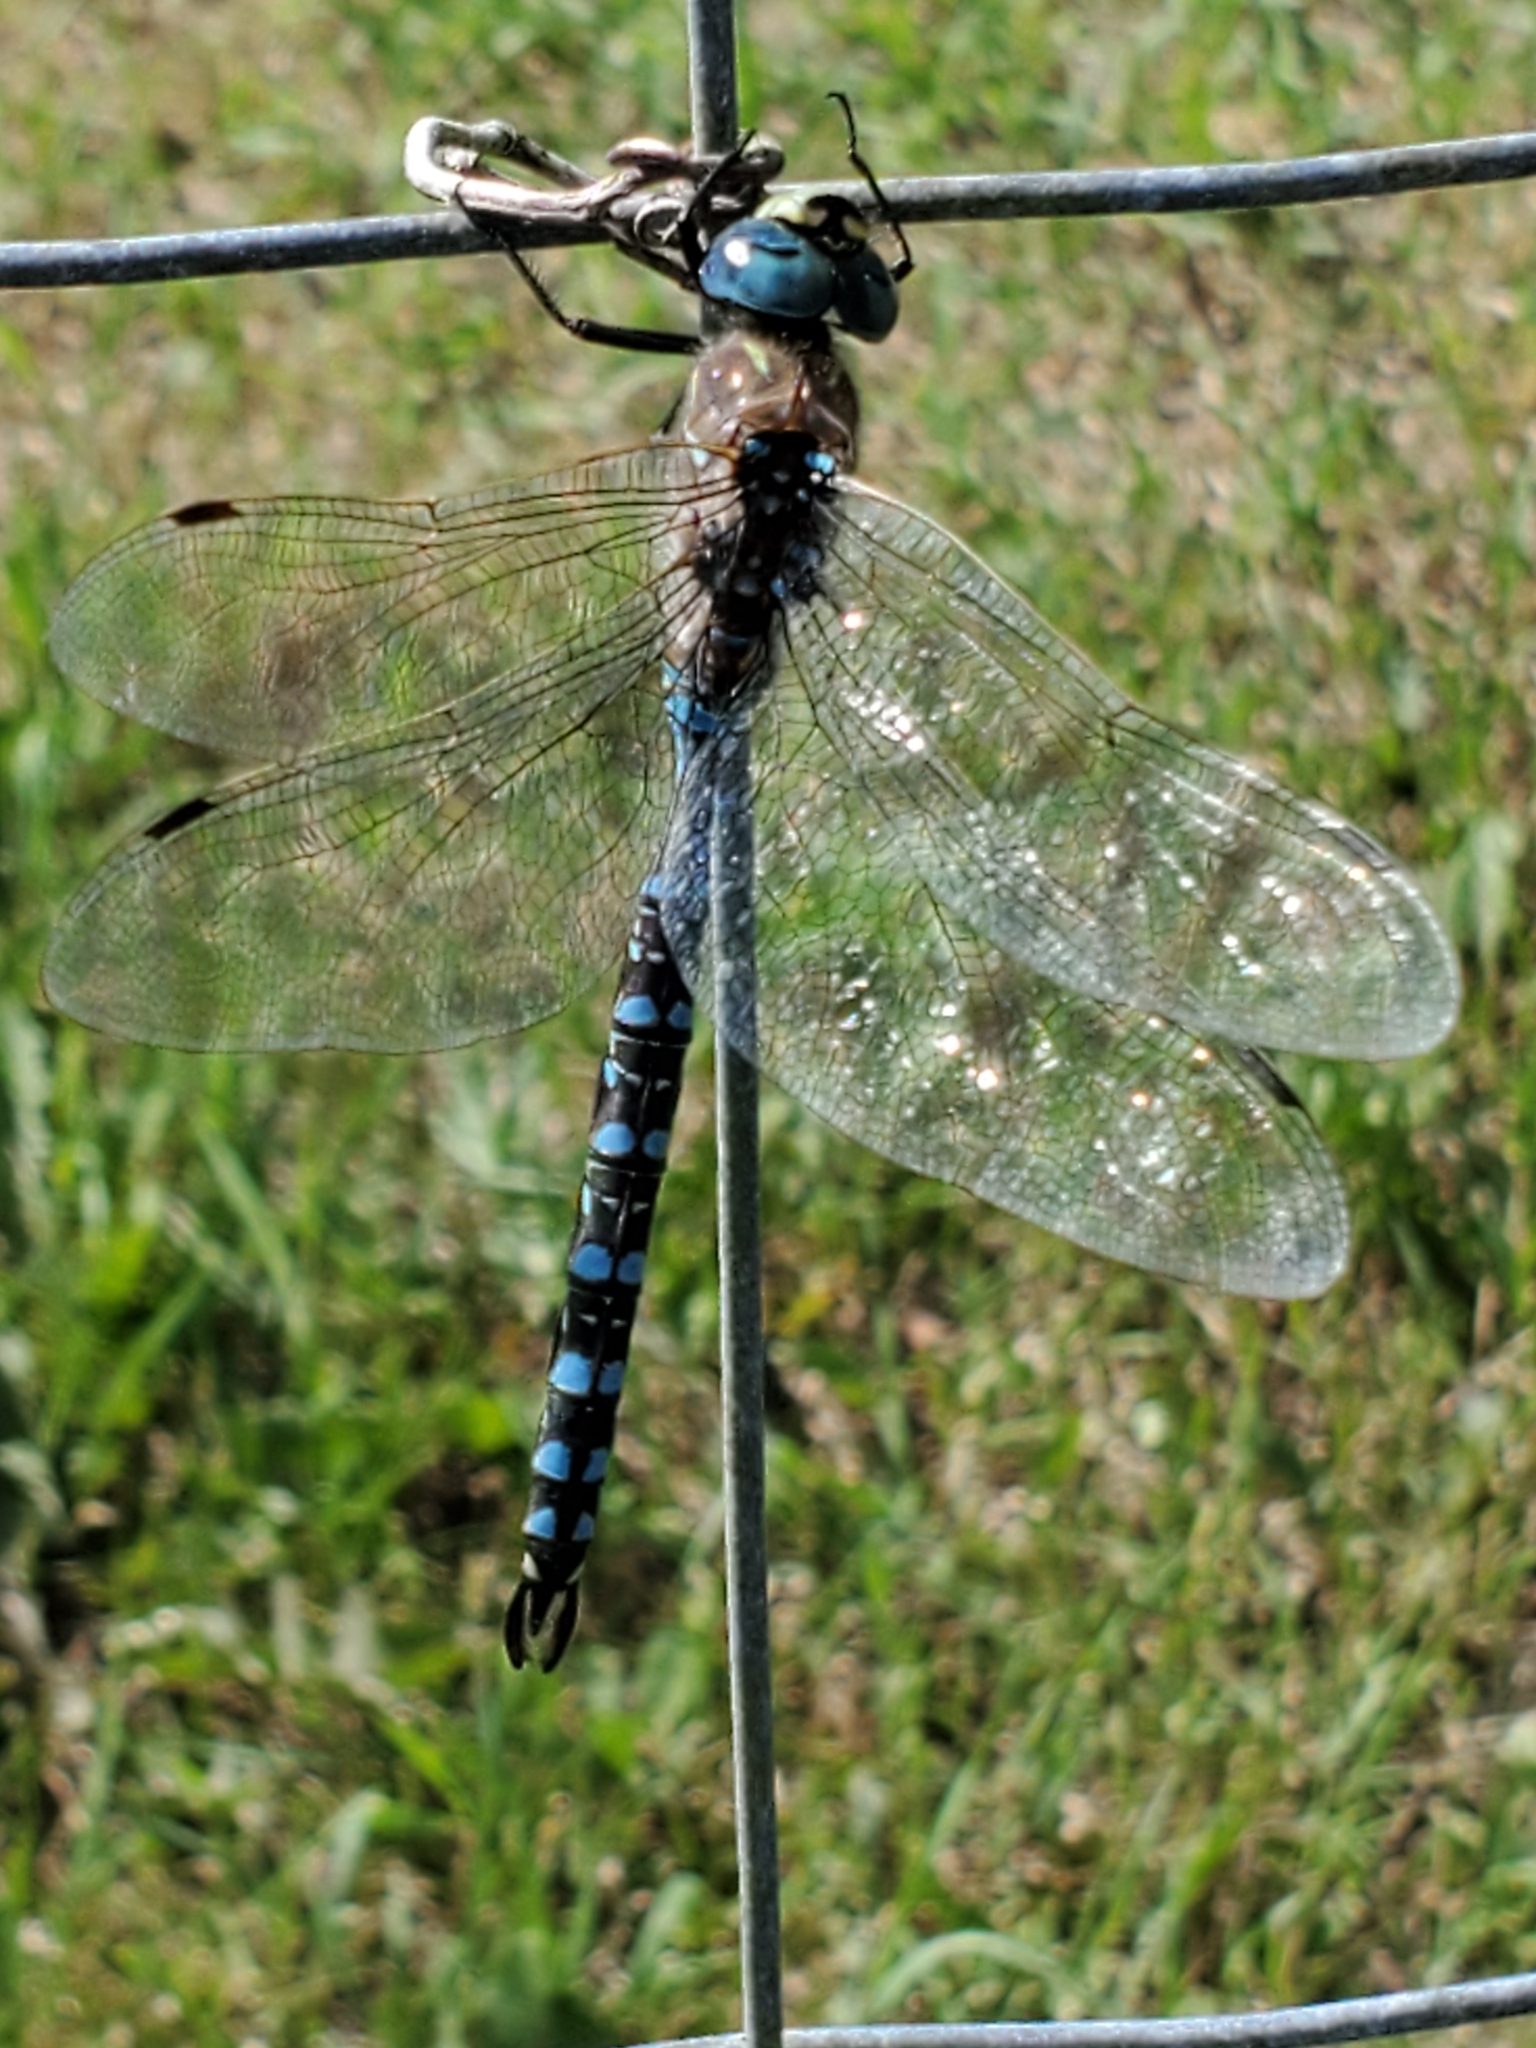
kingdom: Animalia
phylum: Arthropoda
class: Insecta
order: Odonata
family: Aeshnidae
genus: Aeshna
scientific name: Aeshna interrupta
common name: Variable darner
